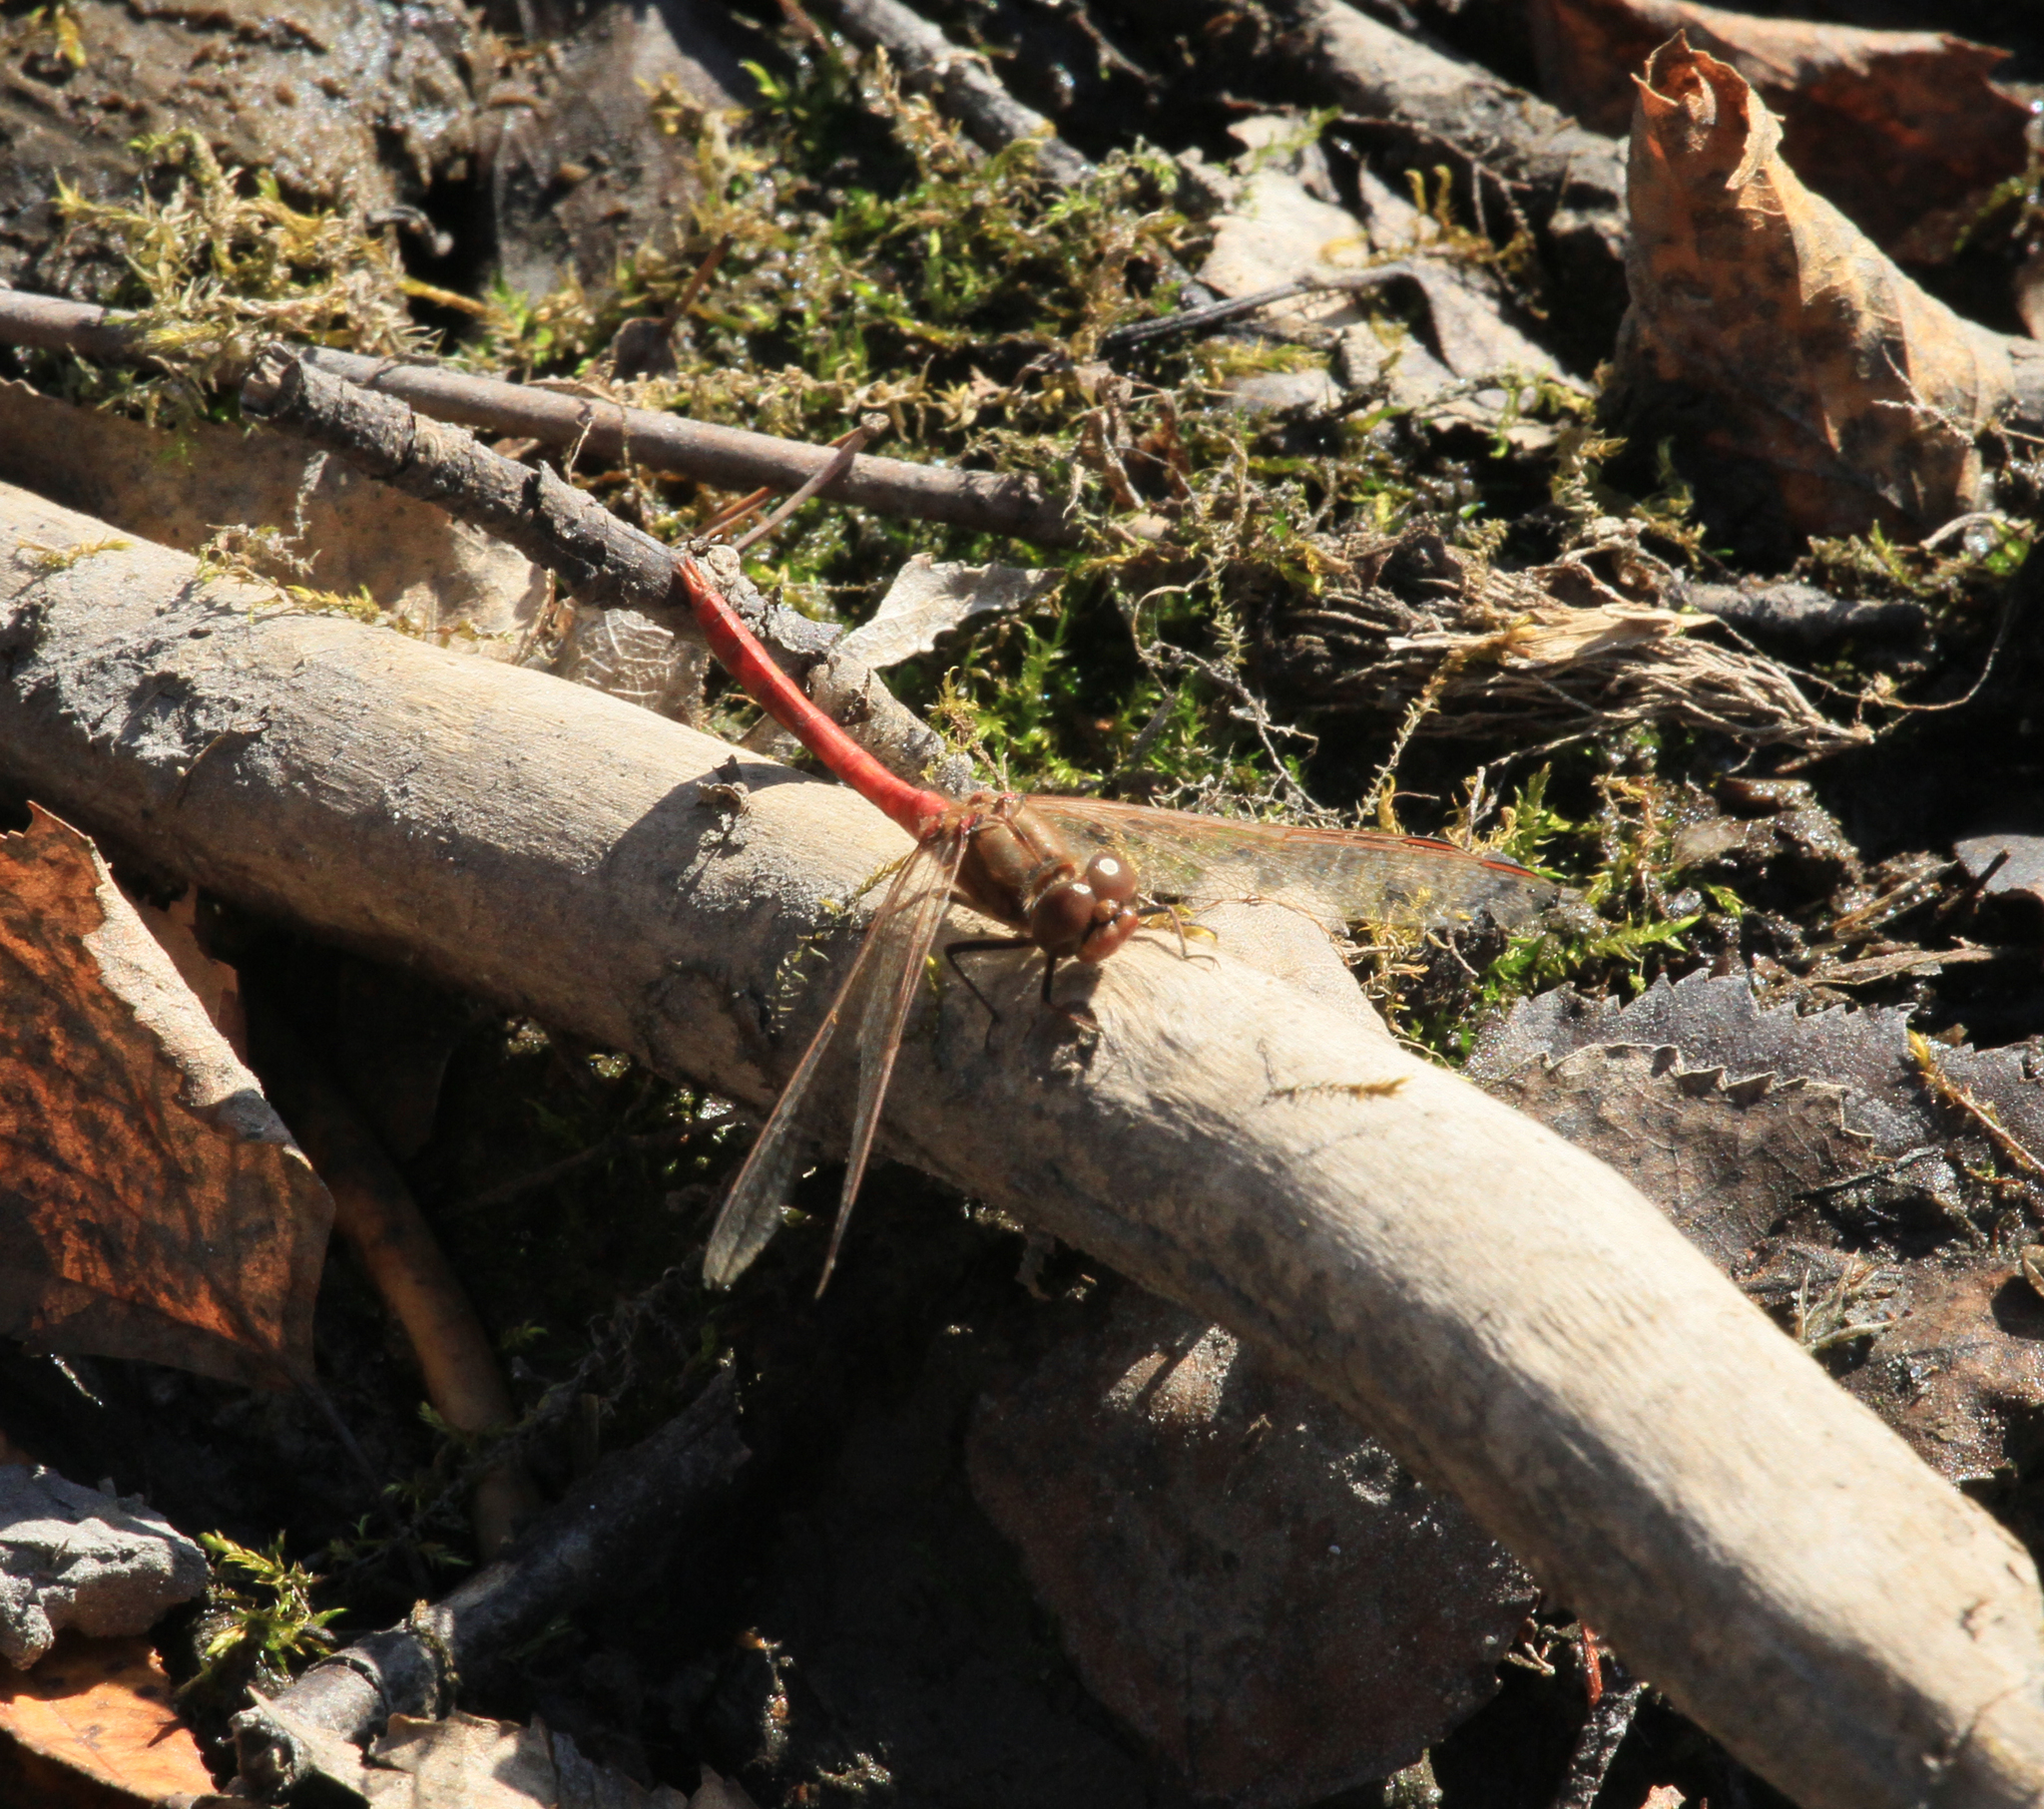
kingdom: Animalia
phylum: Arthropoda
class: Insecta
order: Odonata
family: Libellulidae
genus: Sympetrum
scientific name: Sympetrum vulgatum
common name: Vagrant darter
